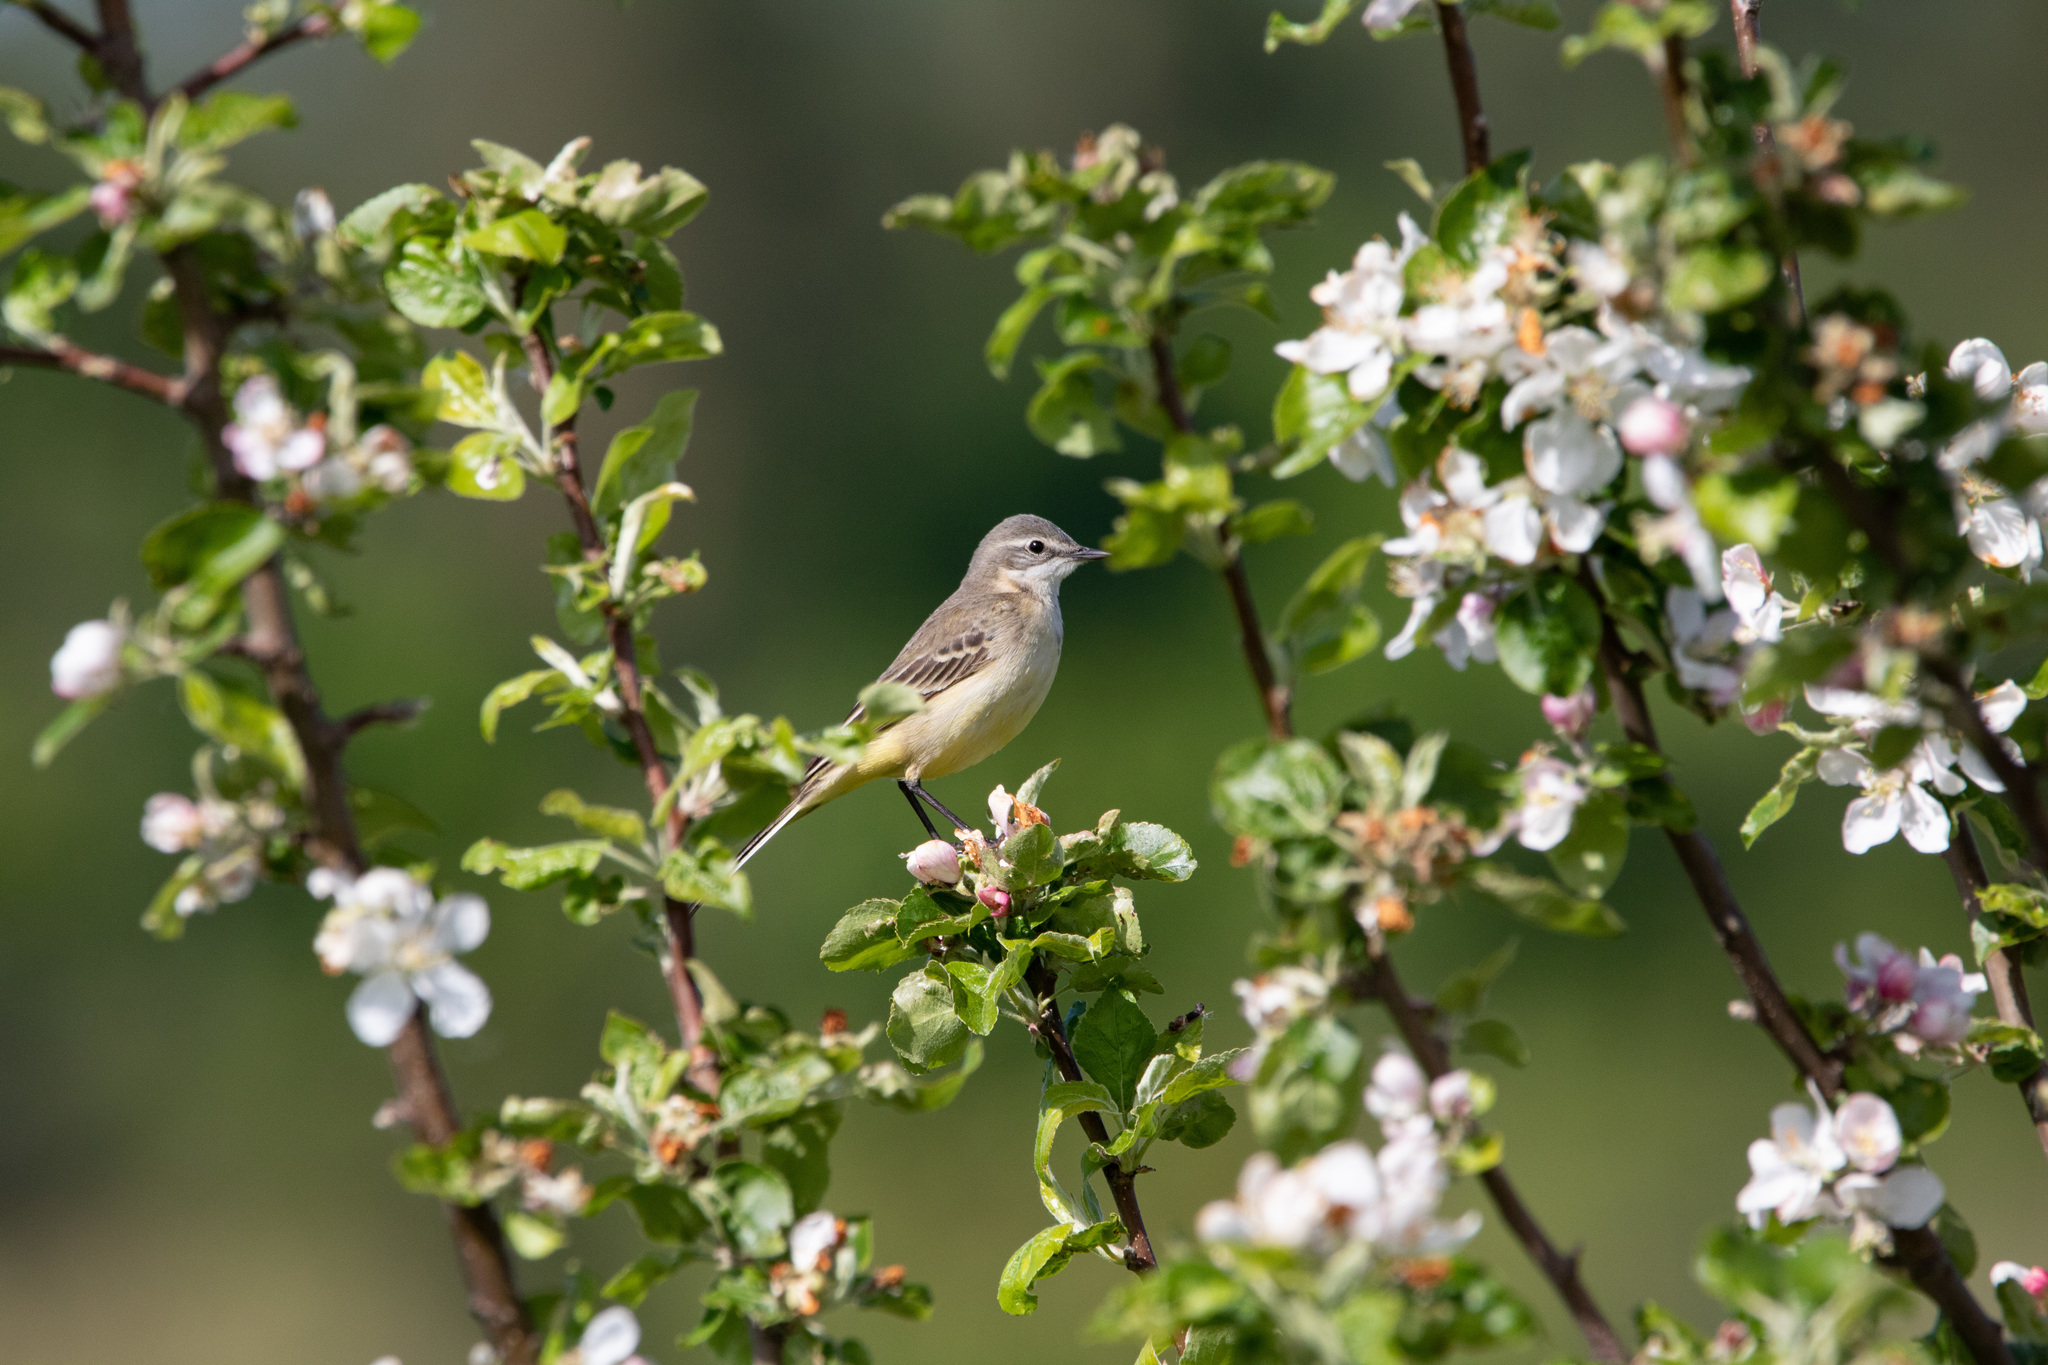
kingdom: Animalia
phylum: Chordata
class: Aves
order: Passeriformes
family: Motacillidae
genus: Motacilla
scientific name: Motacilla flava
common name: Western yellow wagtail
